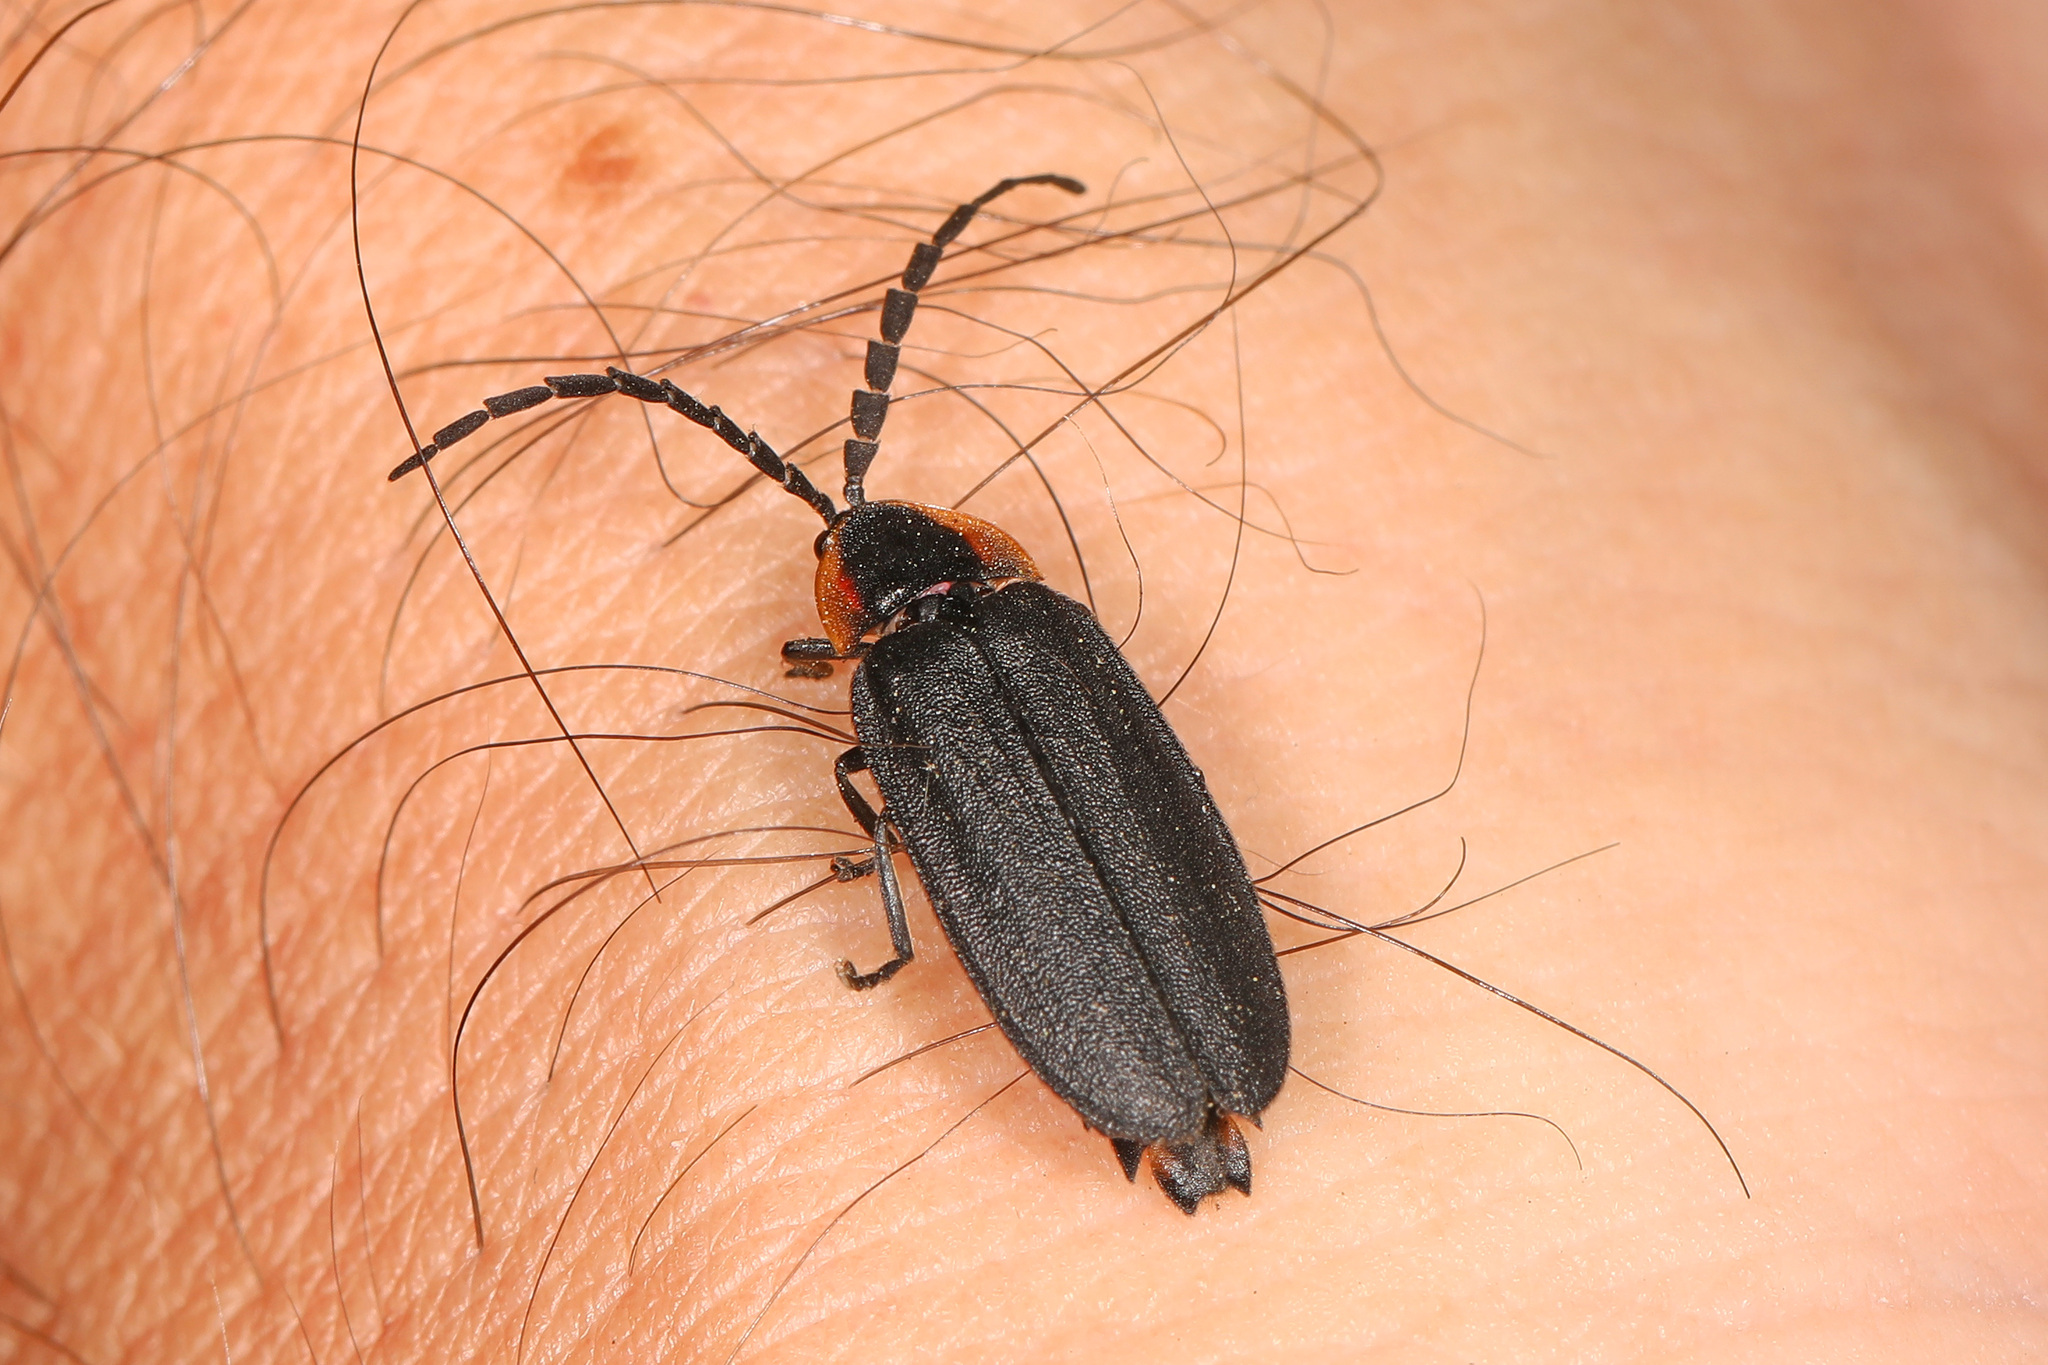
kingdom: Animalia
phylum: Arthropoda
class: Insecta
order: Coleoptera
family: Lampyridae
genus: Lucidota
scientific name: Lucidota atra
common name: Black firefly
